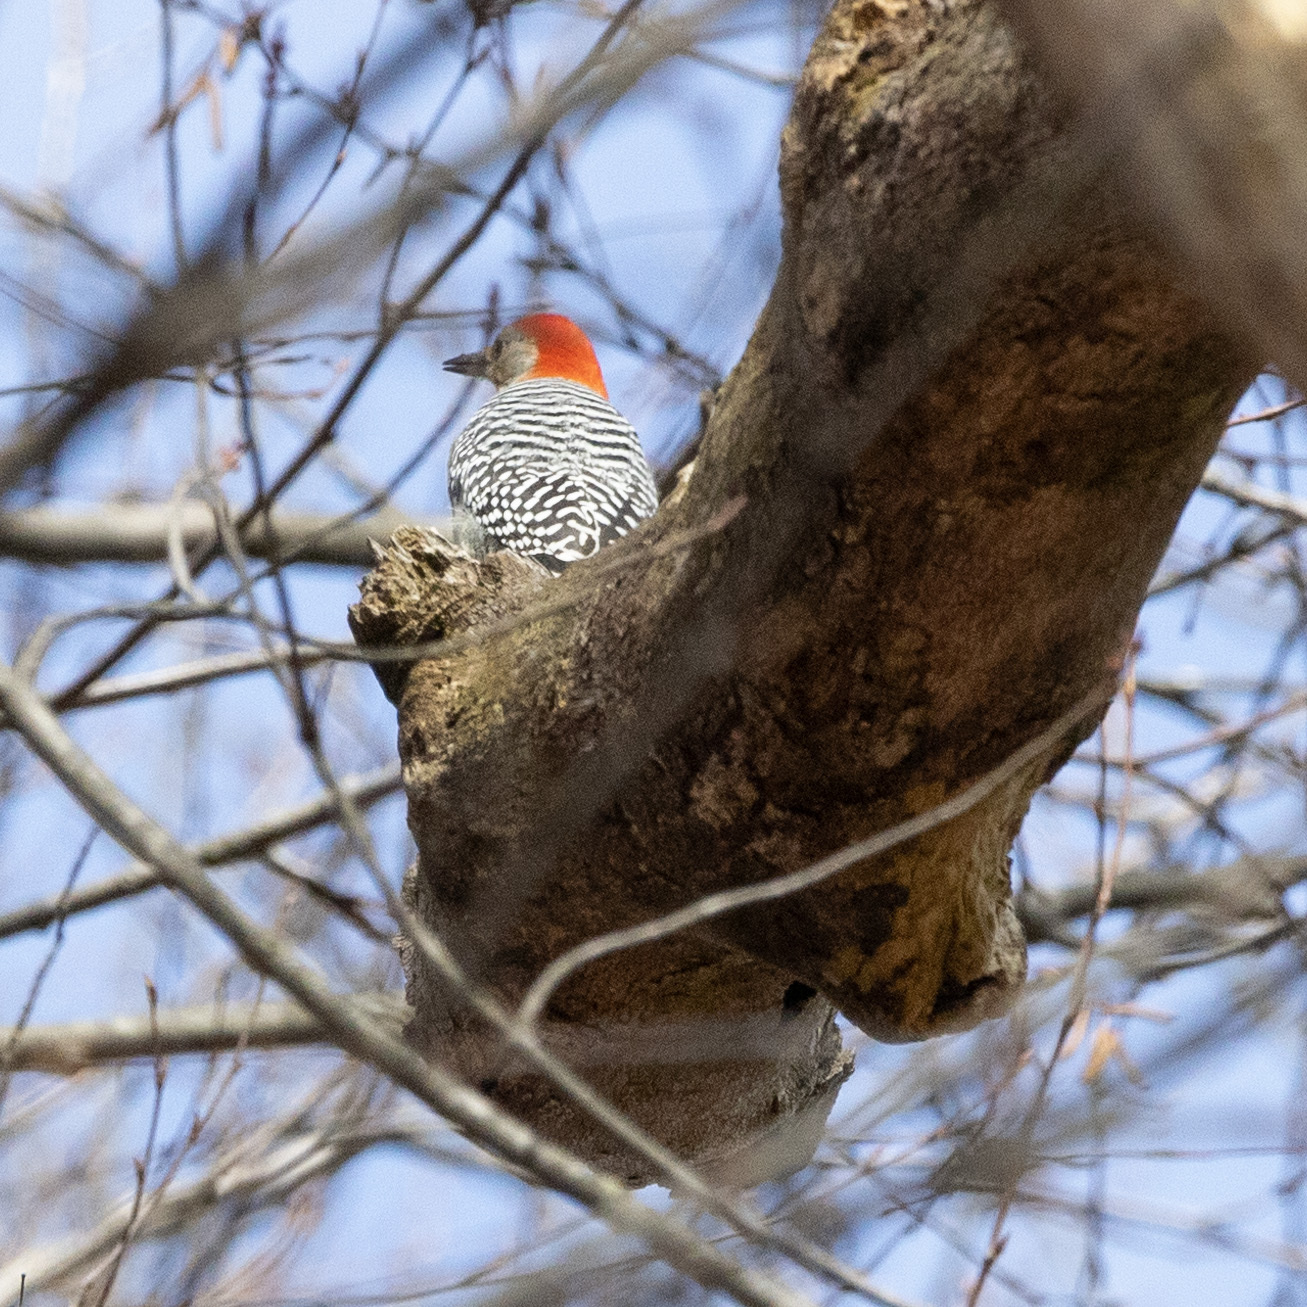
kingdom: Animalia
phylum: Chordata
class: Aves
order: Piciformes
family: Picidae
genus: Melanerpes
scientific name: Melanerpes carolinus
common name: Red-bellied woodpecker
